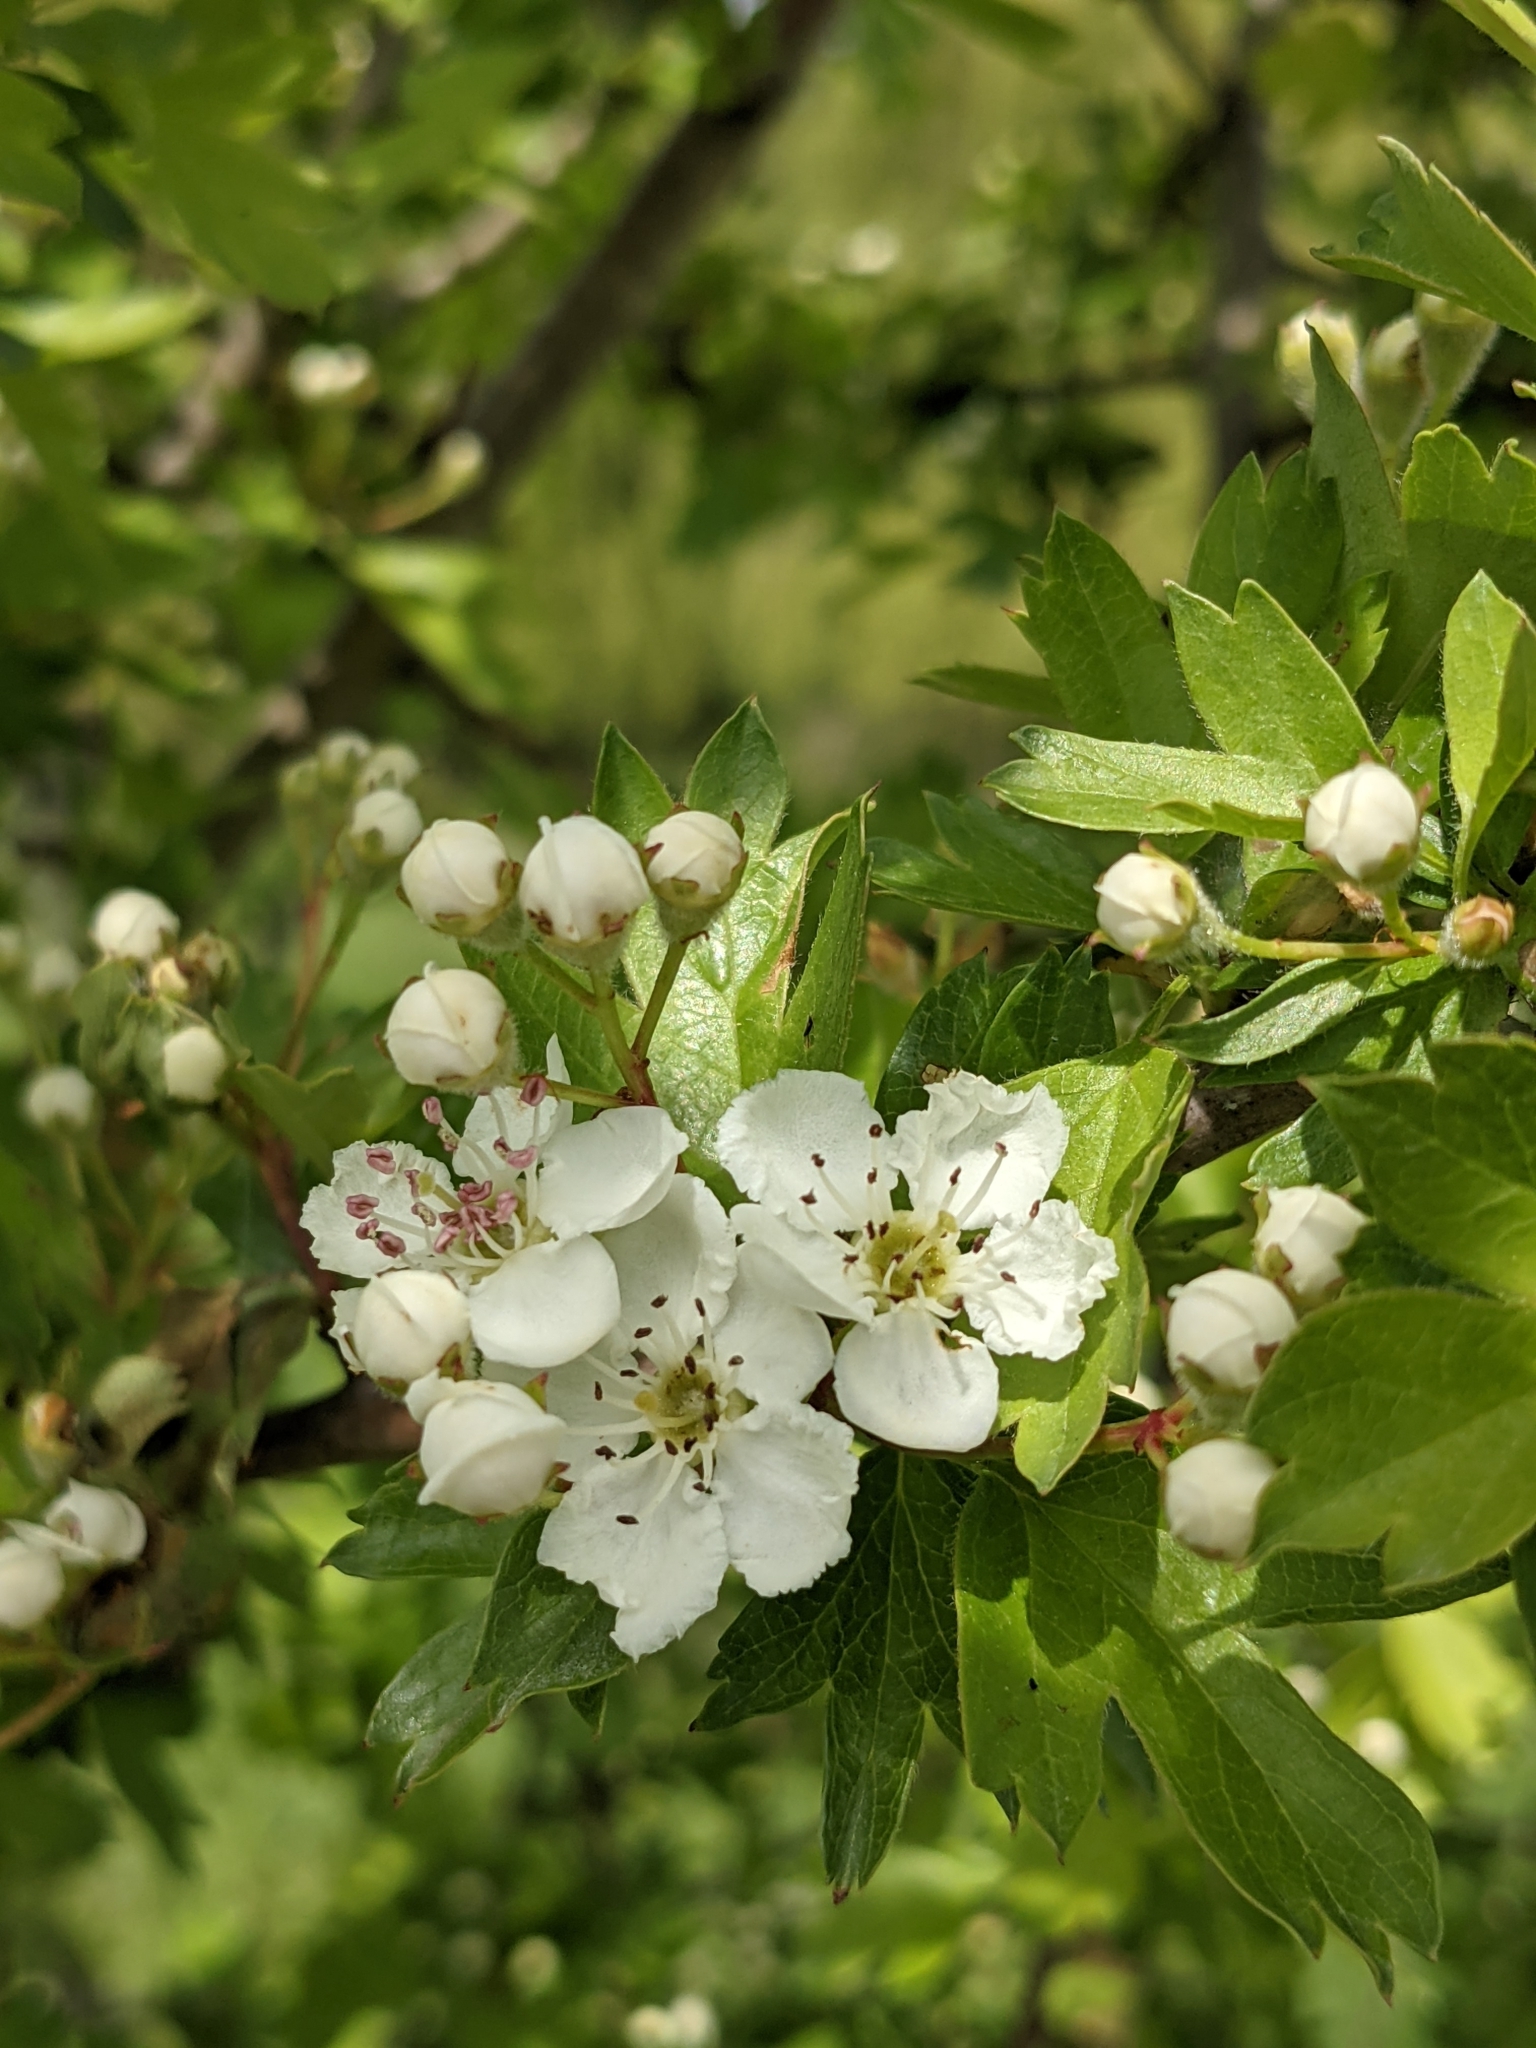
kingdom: Plantae
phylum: Tracheophyta
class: Magnoliopsida
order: Rosales
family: Rosaceae
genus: Crataegus
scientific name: Crataegus monogyna
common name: Hawthorn
